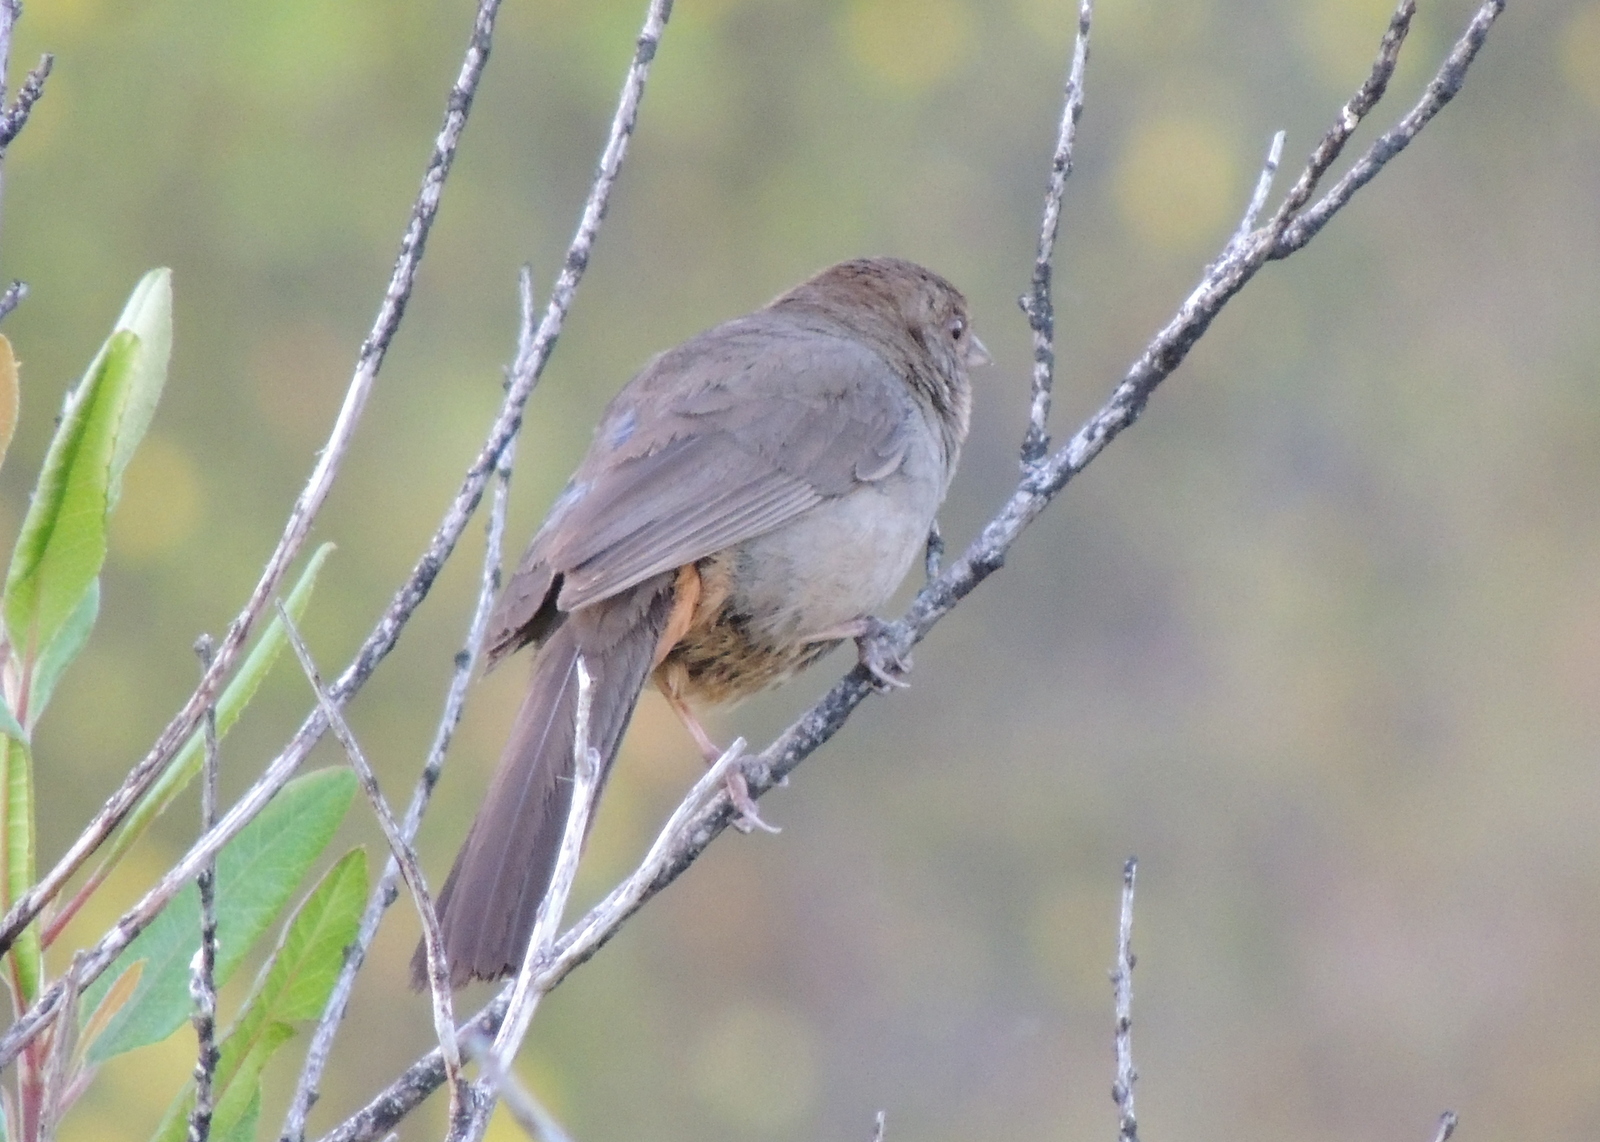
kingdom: Animalia
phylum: Chordata
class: Aves
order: Passeriformes
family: Passerellidae
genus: Melozone
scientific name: Melozone crissalis
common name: California towhee
